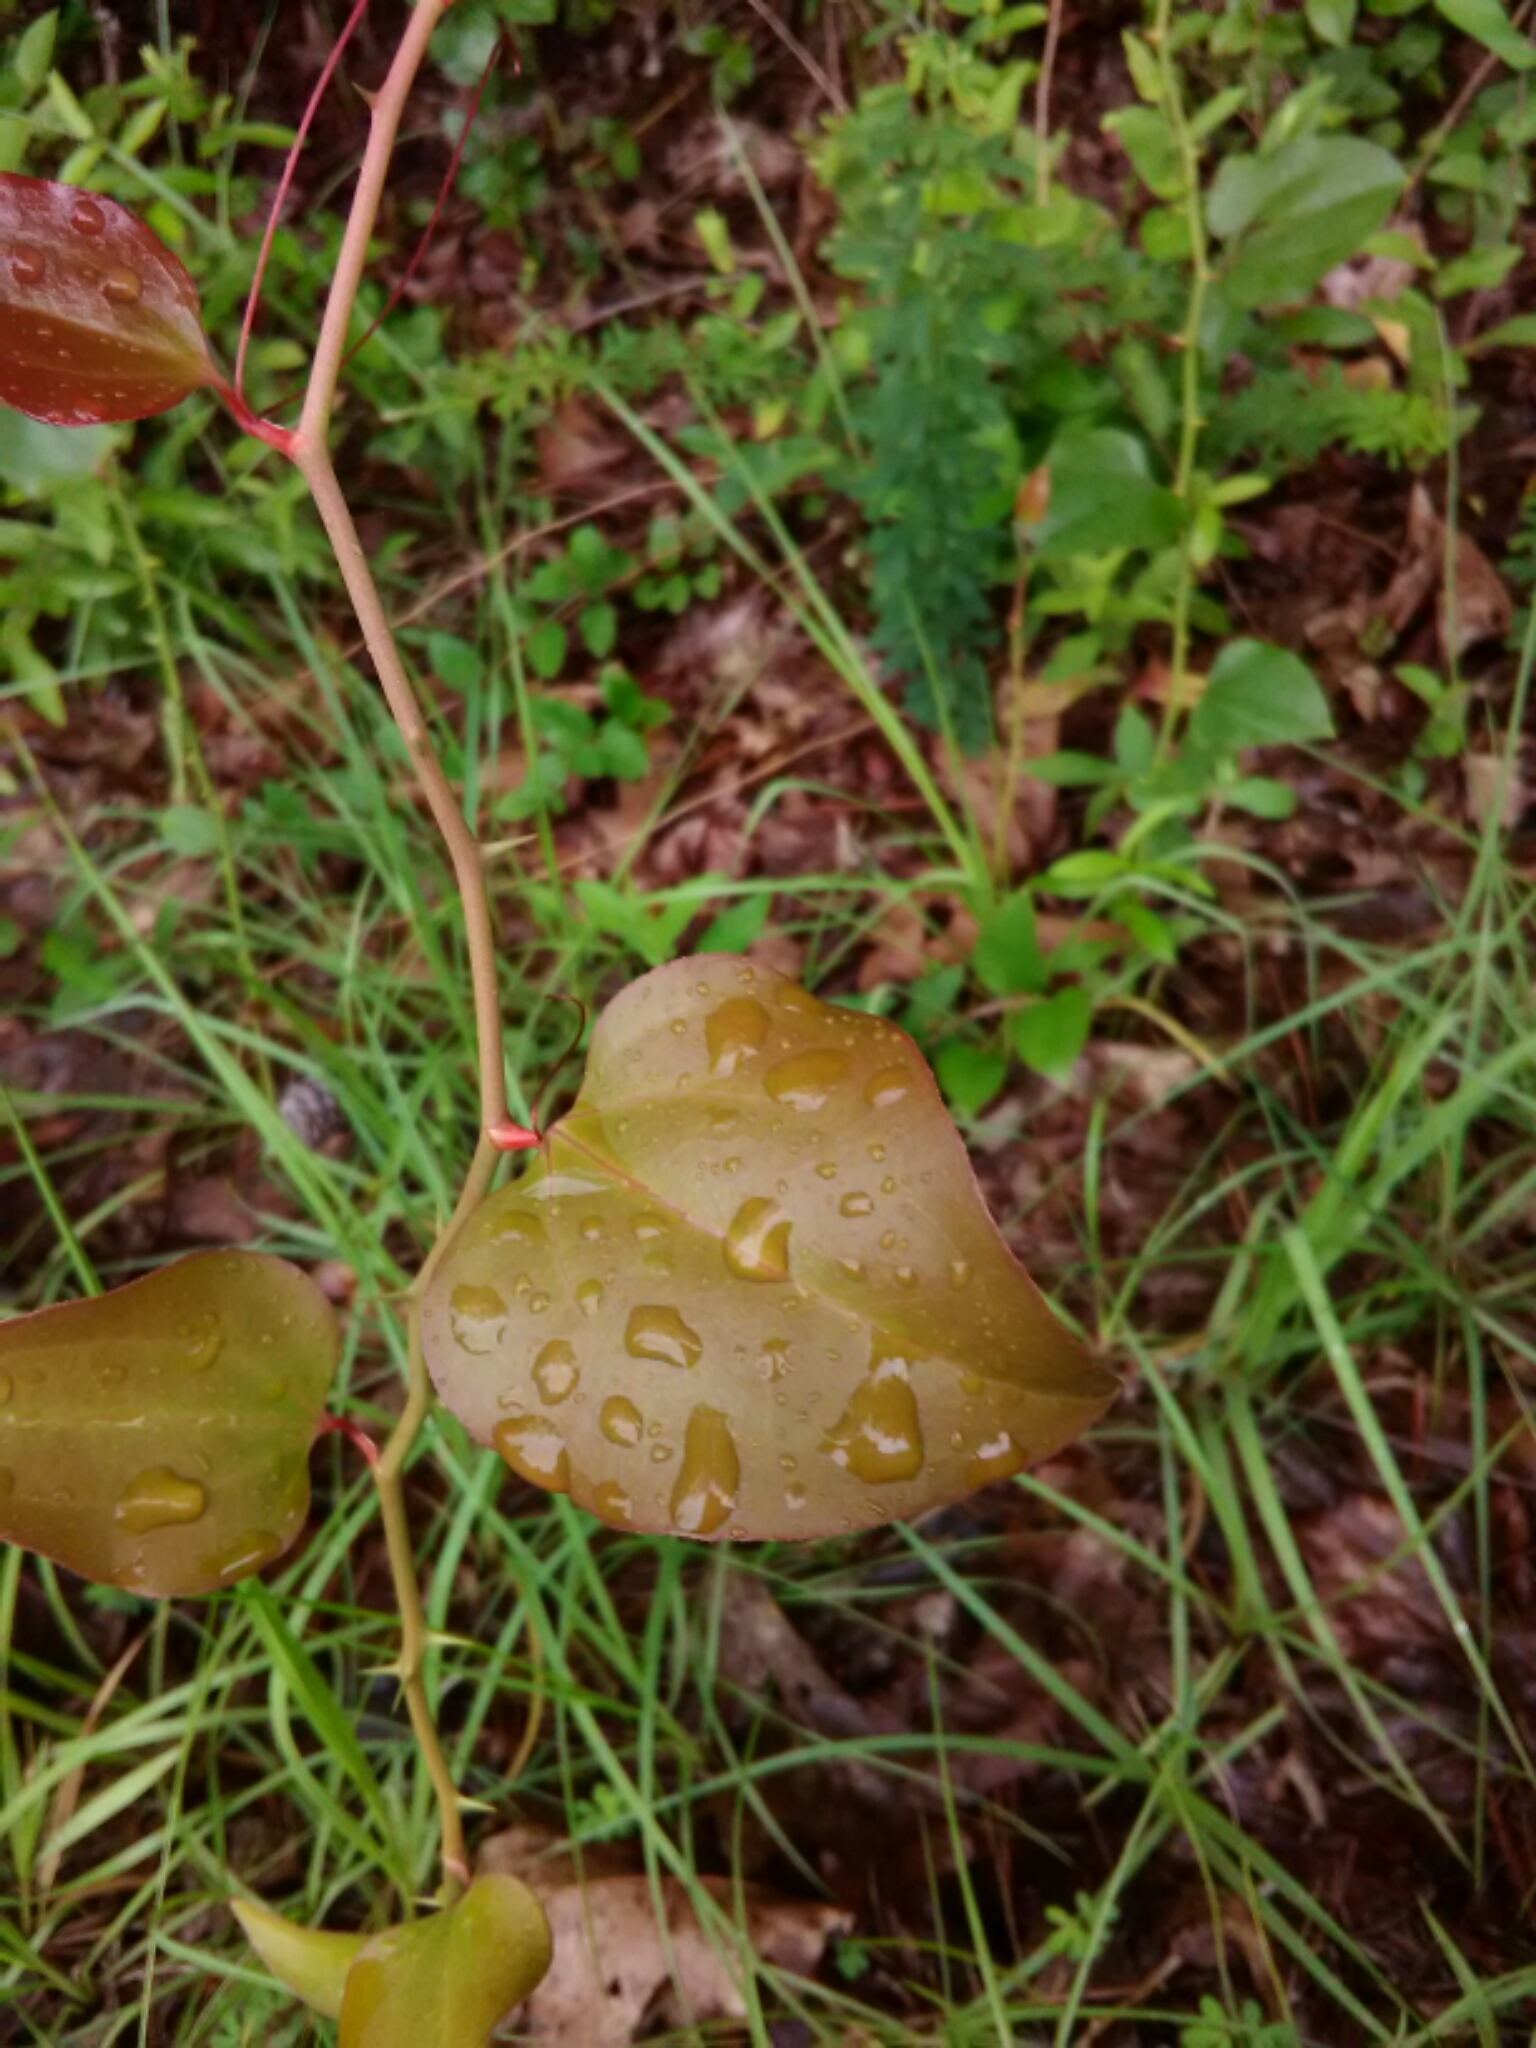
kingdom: Plantae
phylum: Tracheophyta
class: Liliopsida
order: Liliales
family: Smilacaceae
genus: Smilax
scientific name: Smilax rotundifolia
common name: Bullbriar
